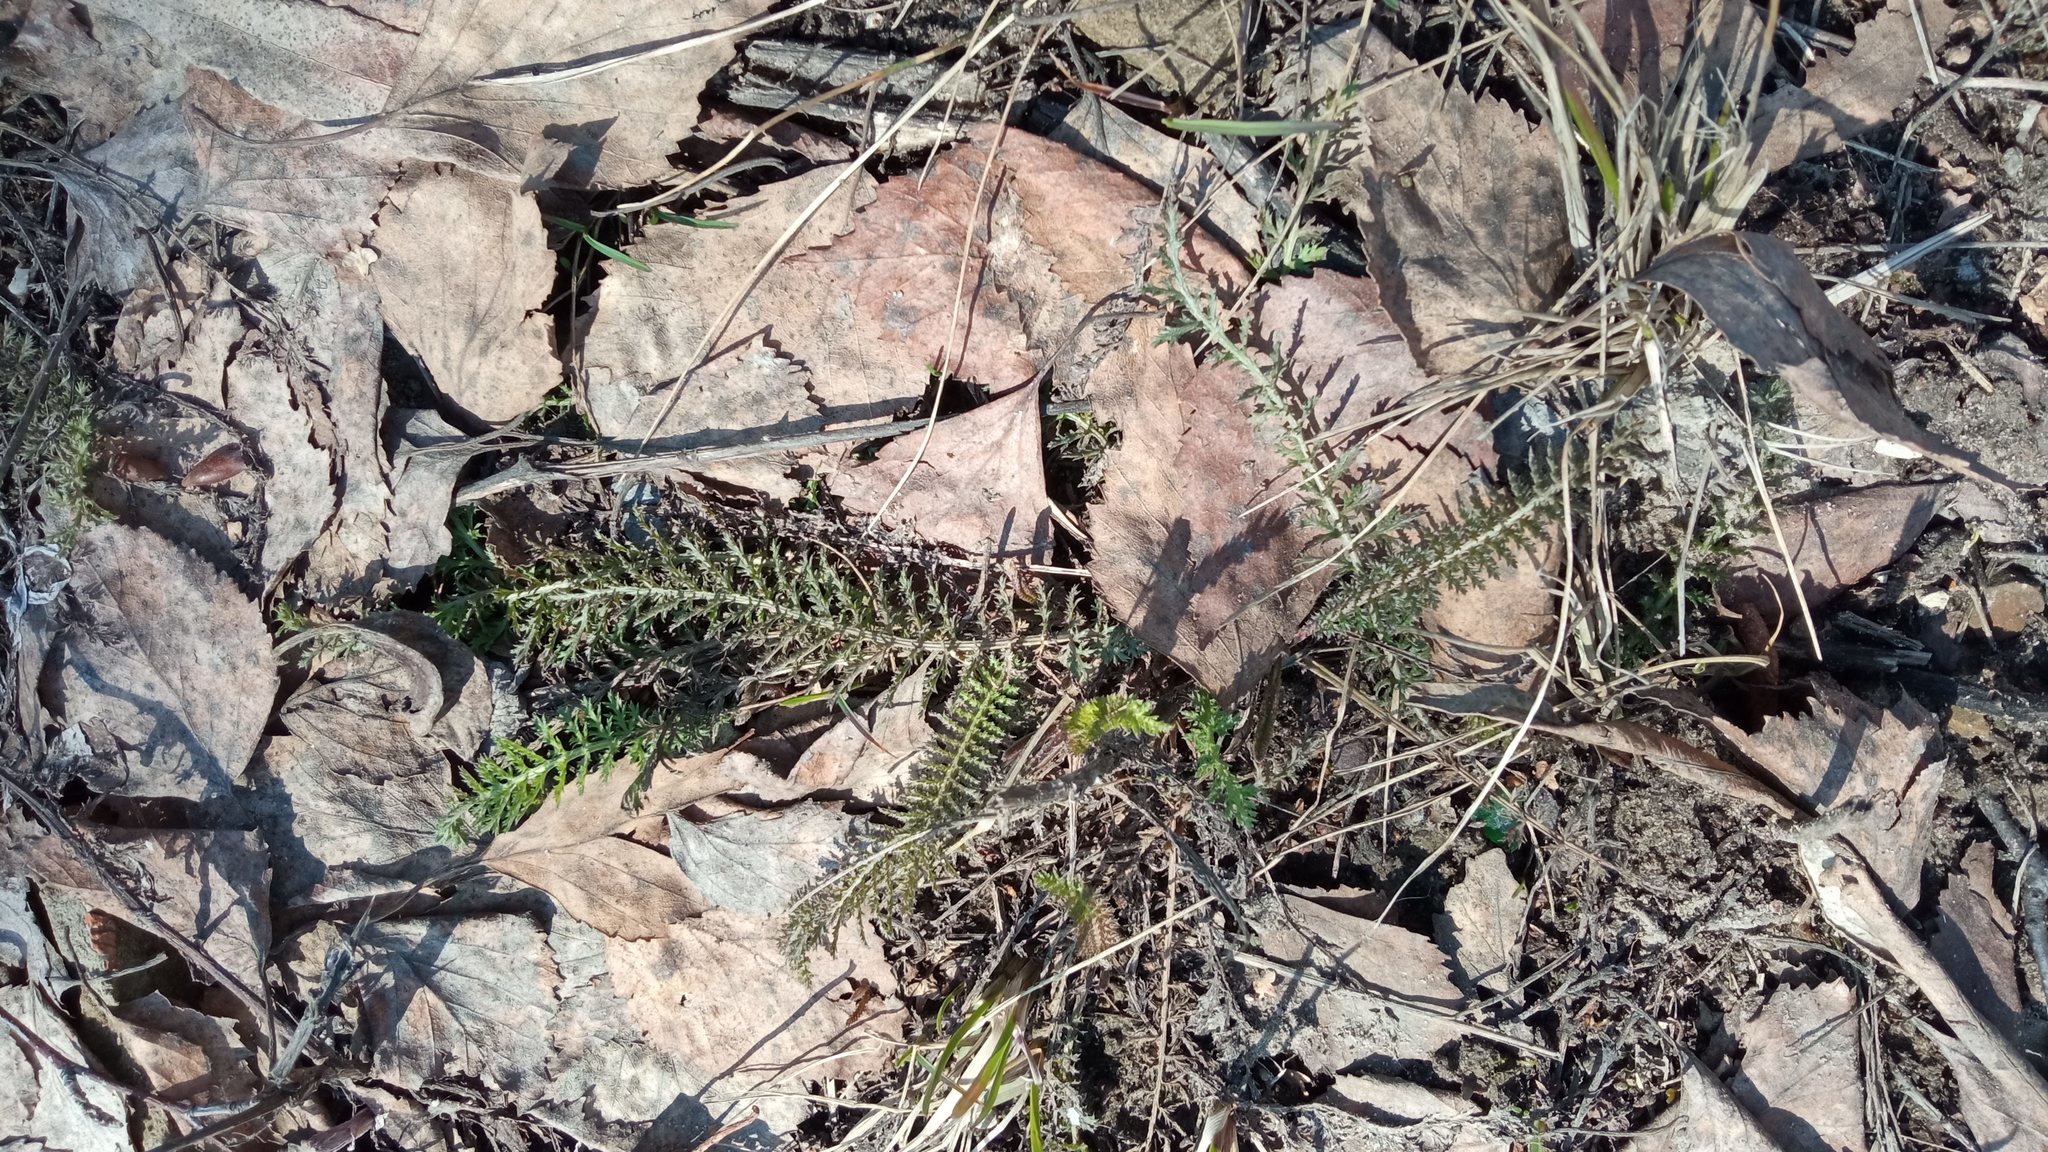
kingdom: Plantae
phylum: Tracheophyta
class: Magnoliopsida
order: Asterales
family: Asteraceae
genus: Achillea
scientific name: Achillea millefolium
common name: Yarrow
